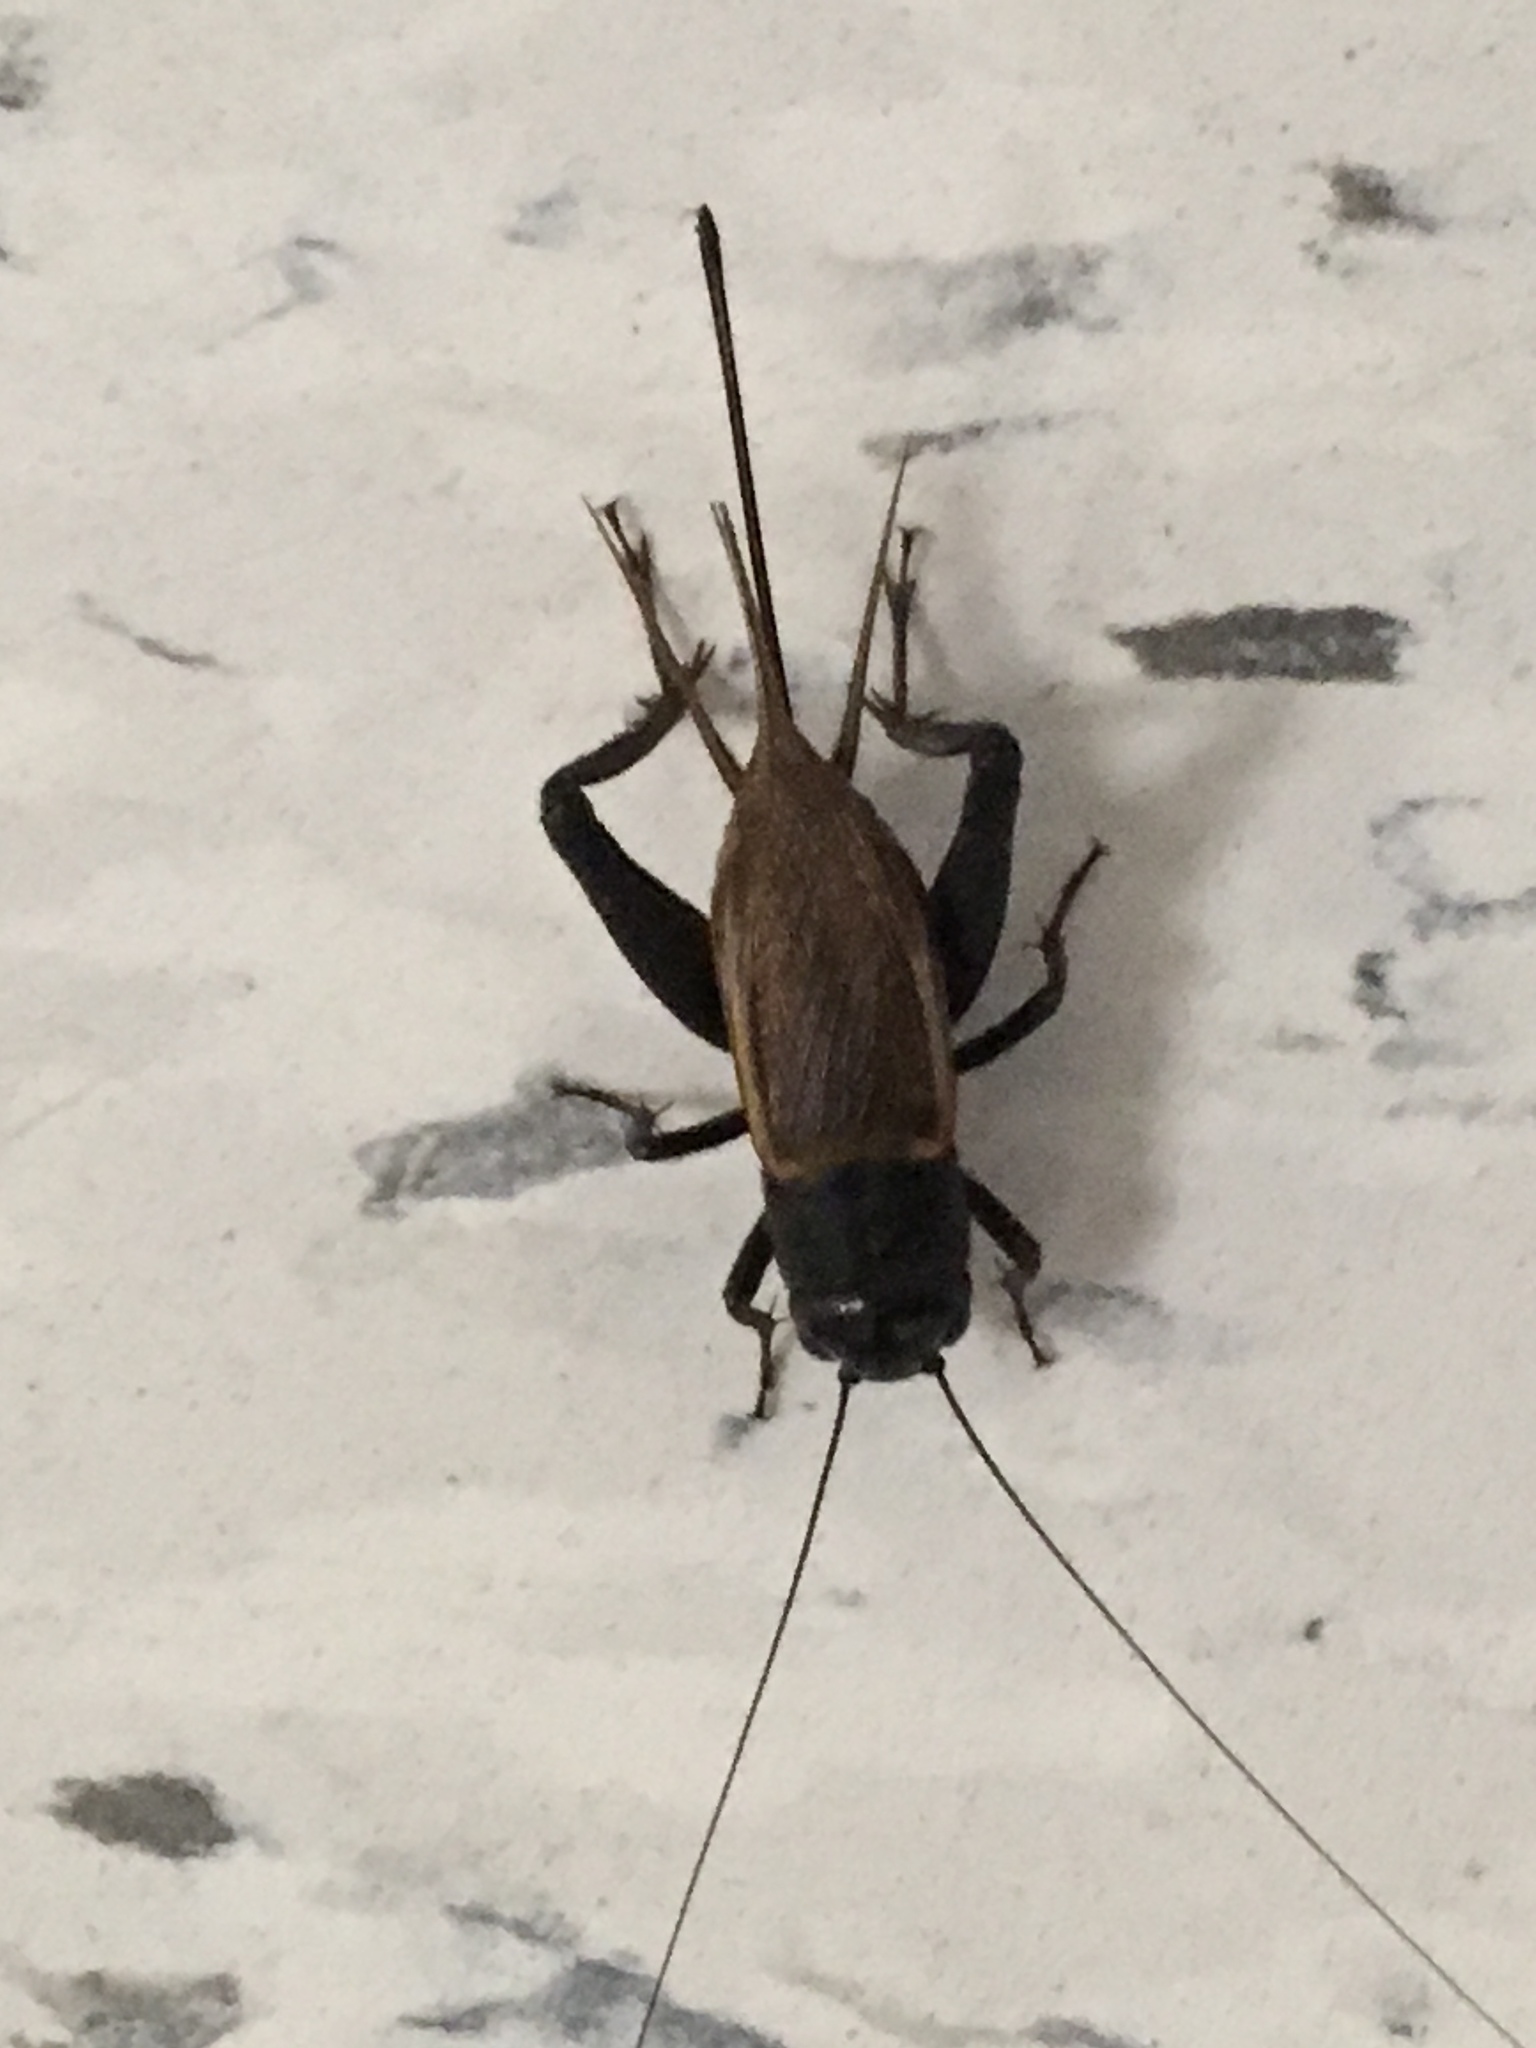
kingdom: Animalia
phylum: Arthropoda
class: Insecta
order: Orthoptera
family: Gryllidae
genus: Gryllus
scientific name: Gryllus pennsylvanicus
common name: Fall field cricket
